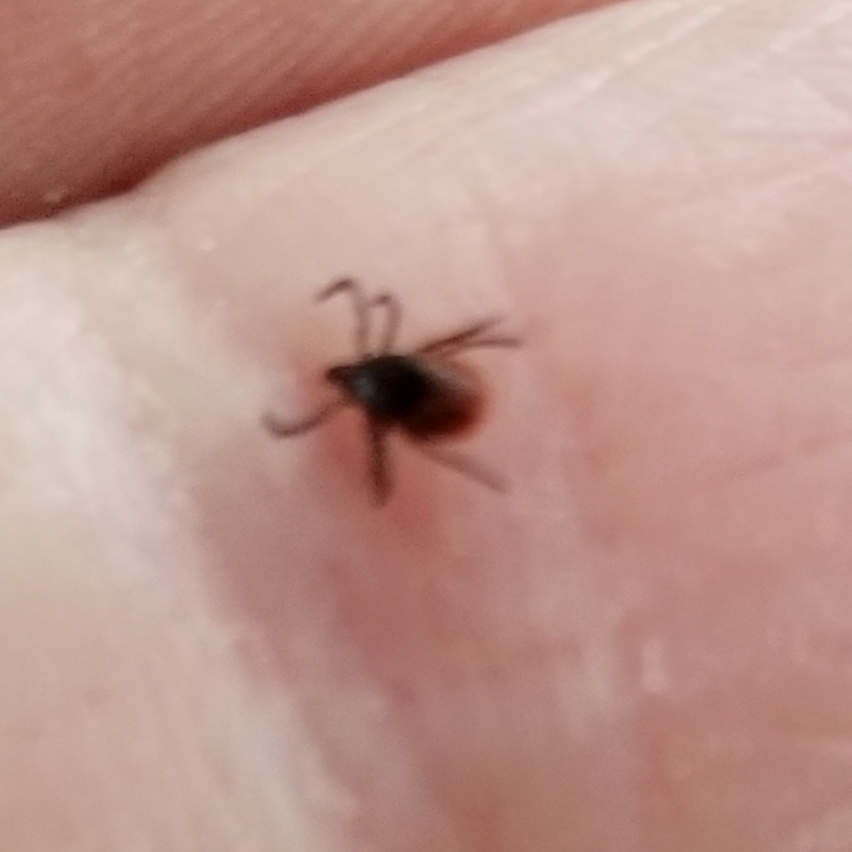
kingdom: Animalia
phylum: Arthropoda
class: Arachnida
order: Ixodida
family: Ixodidae
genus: Ixodes
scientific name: Ixodes scapularis
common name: Black legged tick
